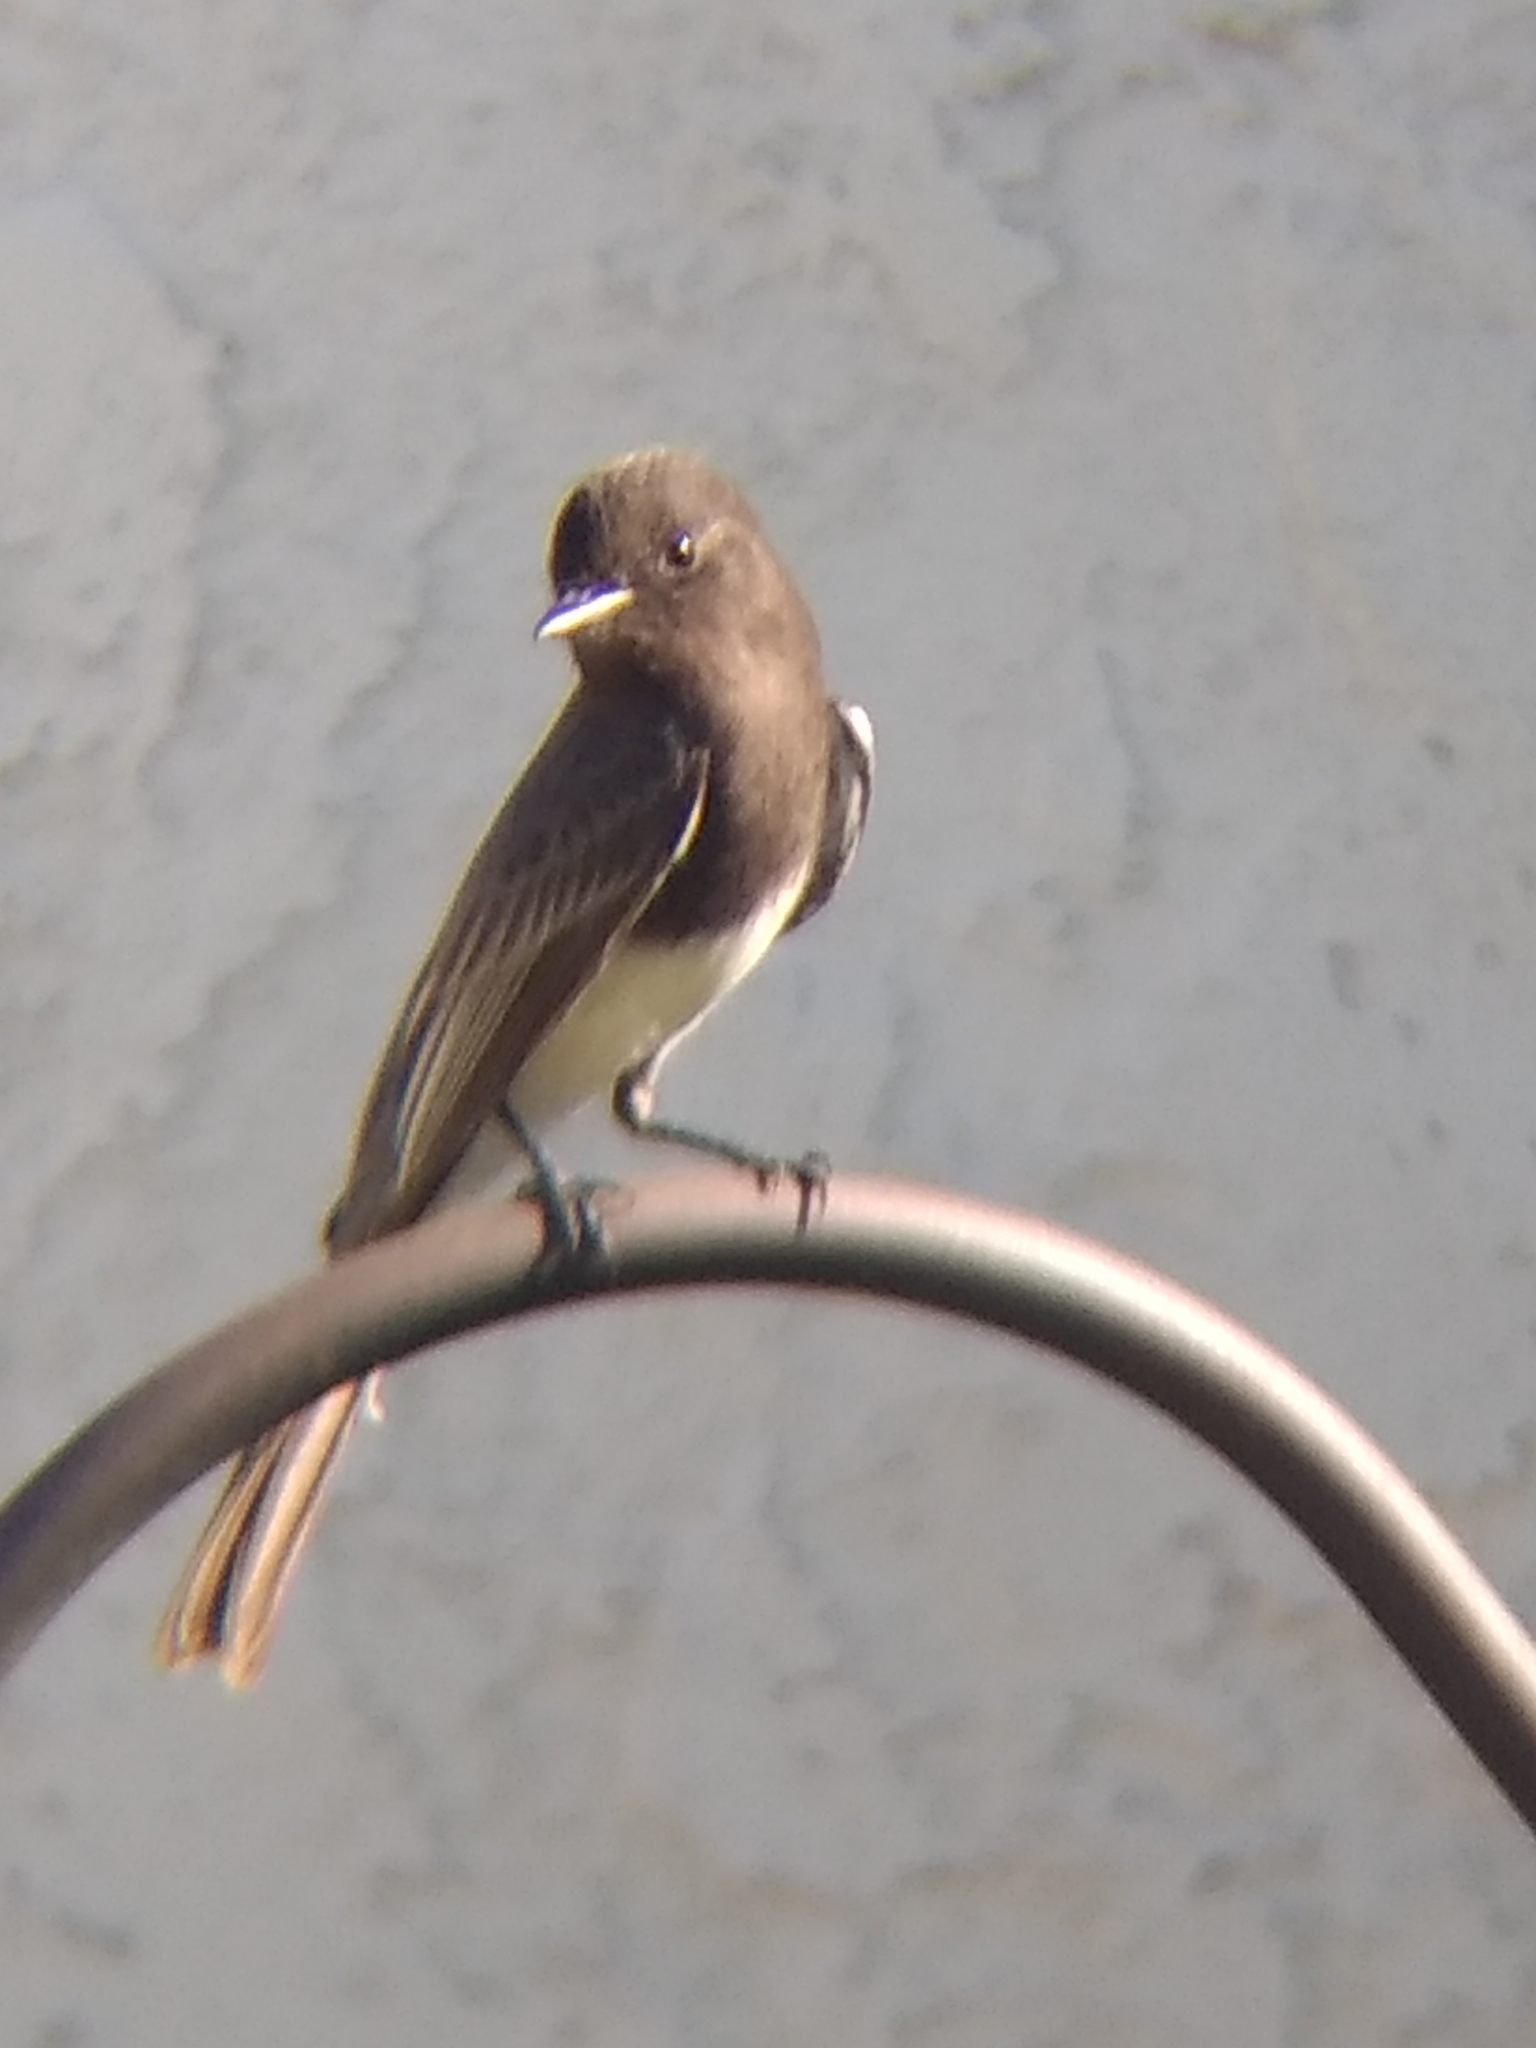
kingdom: Animalia
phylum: Chordata
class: Aves
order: Passeriformes
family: Tyrannidae
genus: Sayornis
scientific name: Sayornis nigricans
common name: Black phoebe
